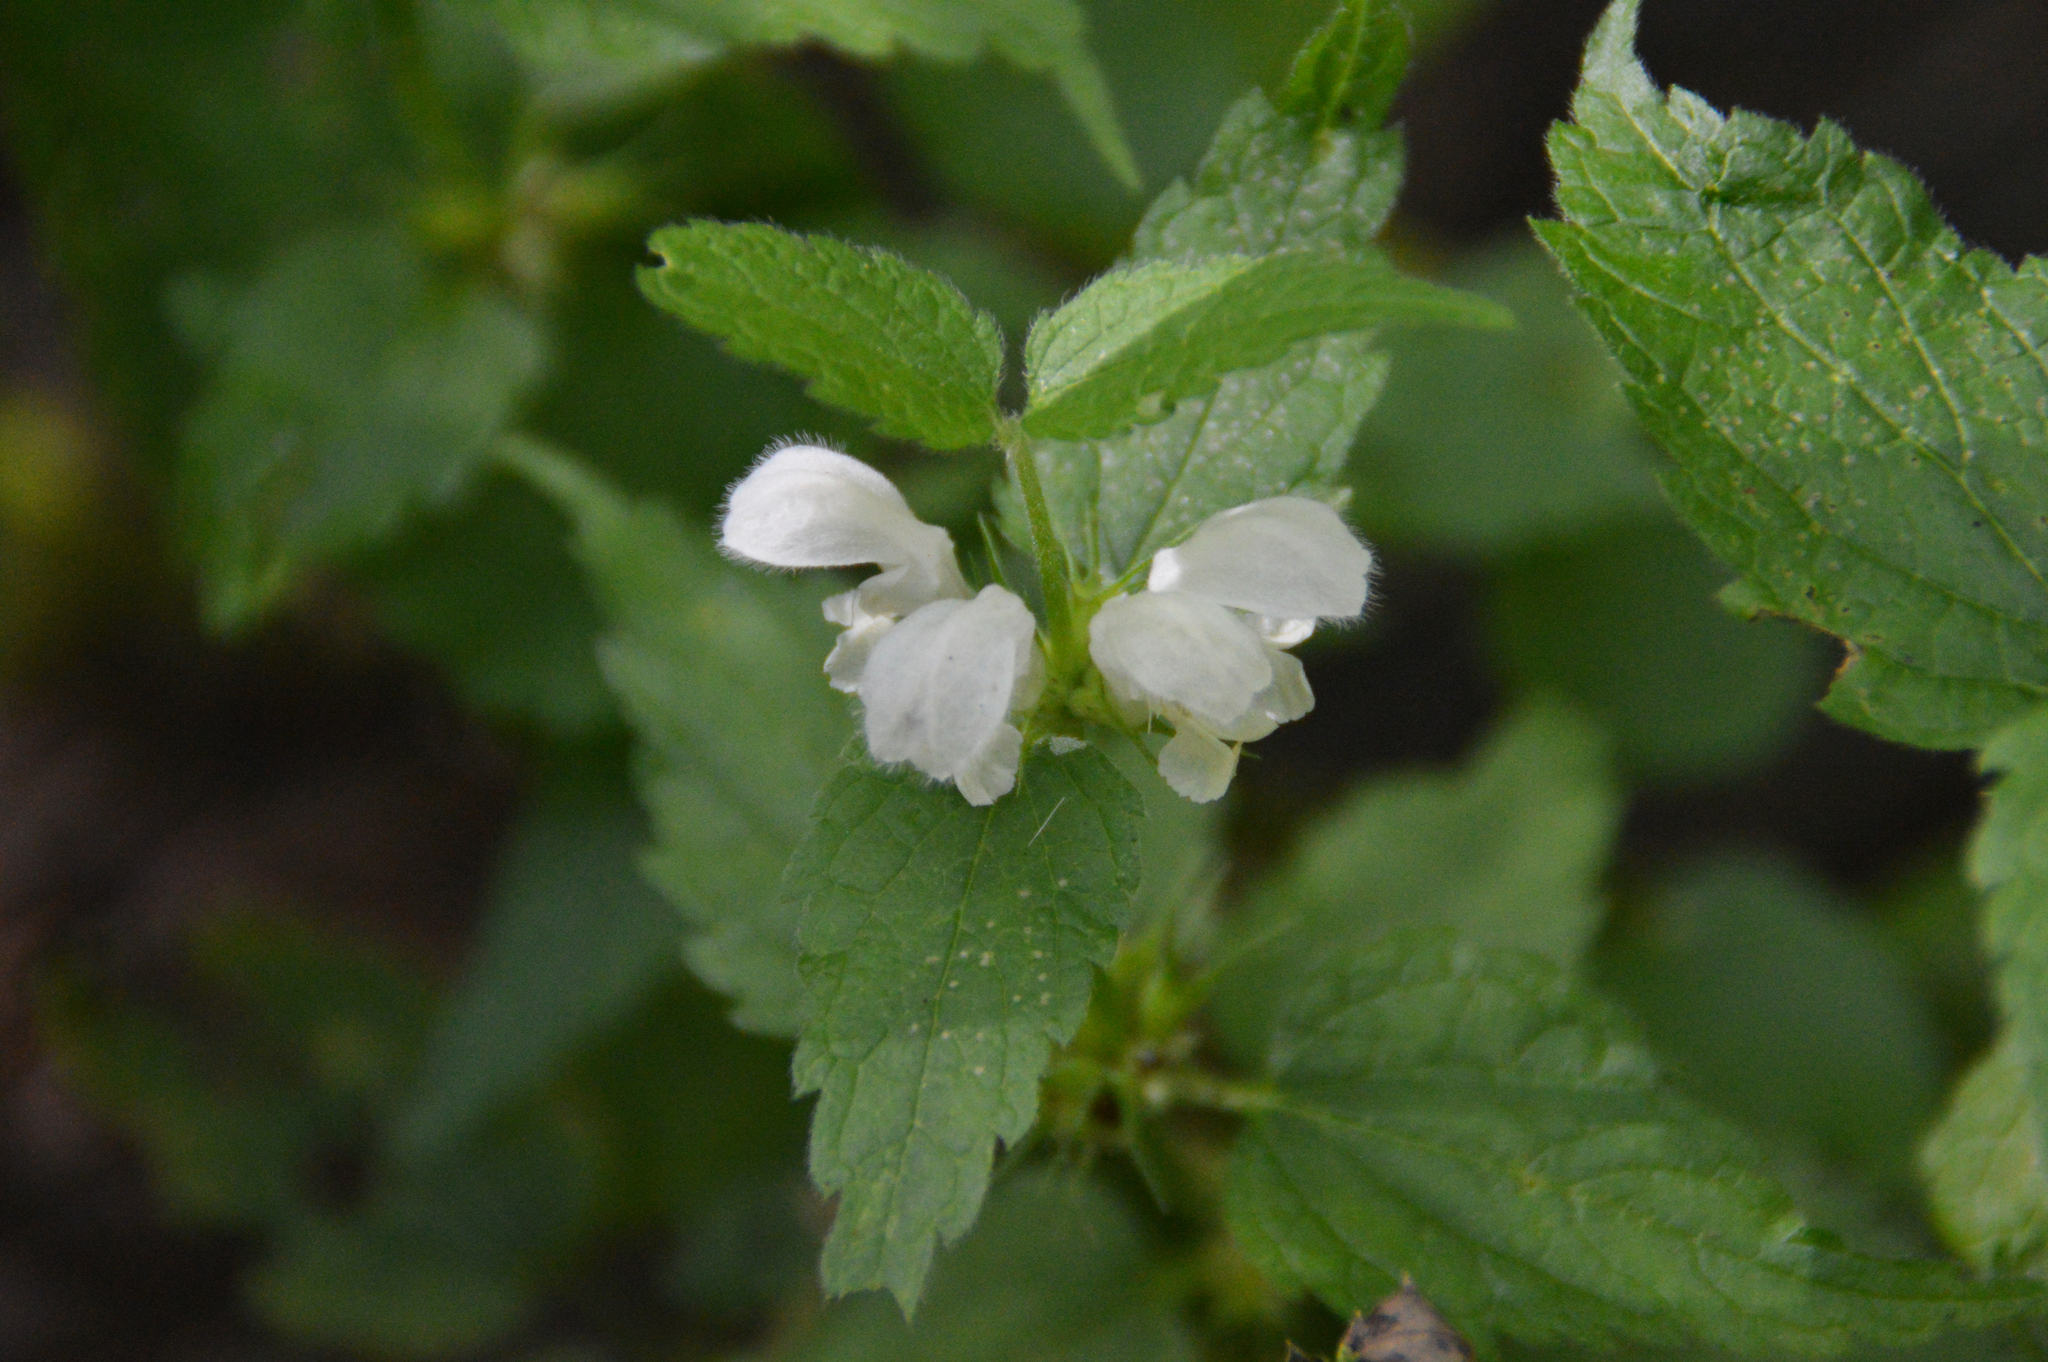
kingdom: Plantae
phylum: Tracheophyta
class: Magnoliopsida
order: Lamiales
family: Lamiaceae
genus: Lamium
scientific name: Lamium album
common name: White dead-nettle
